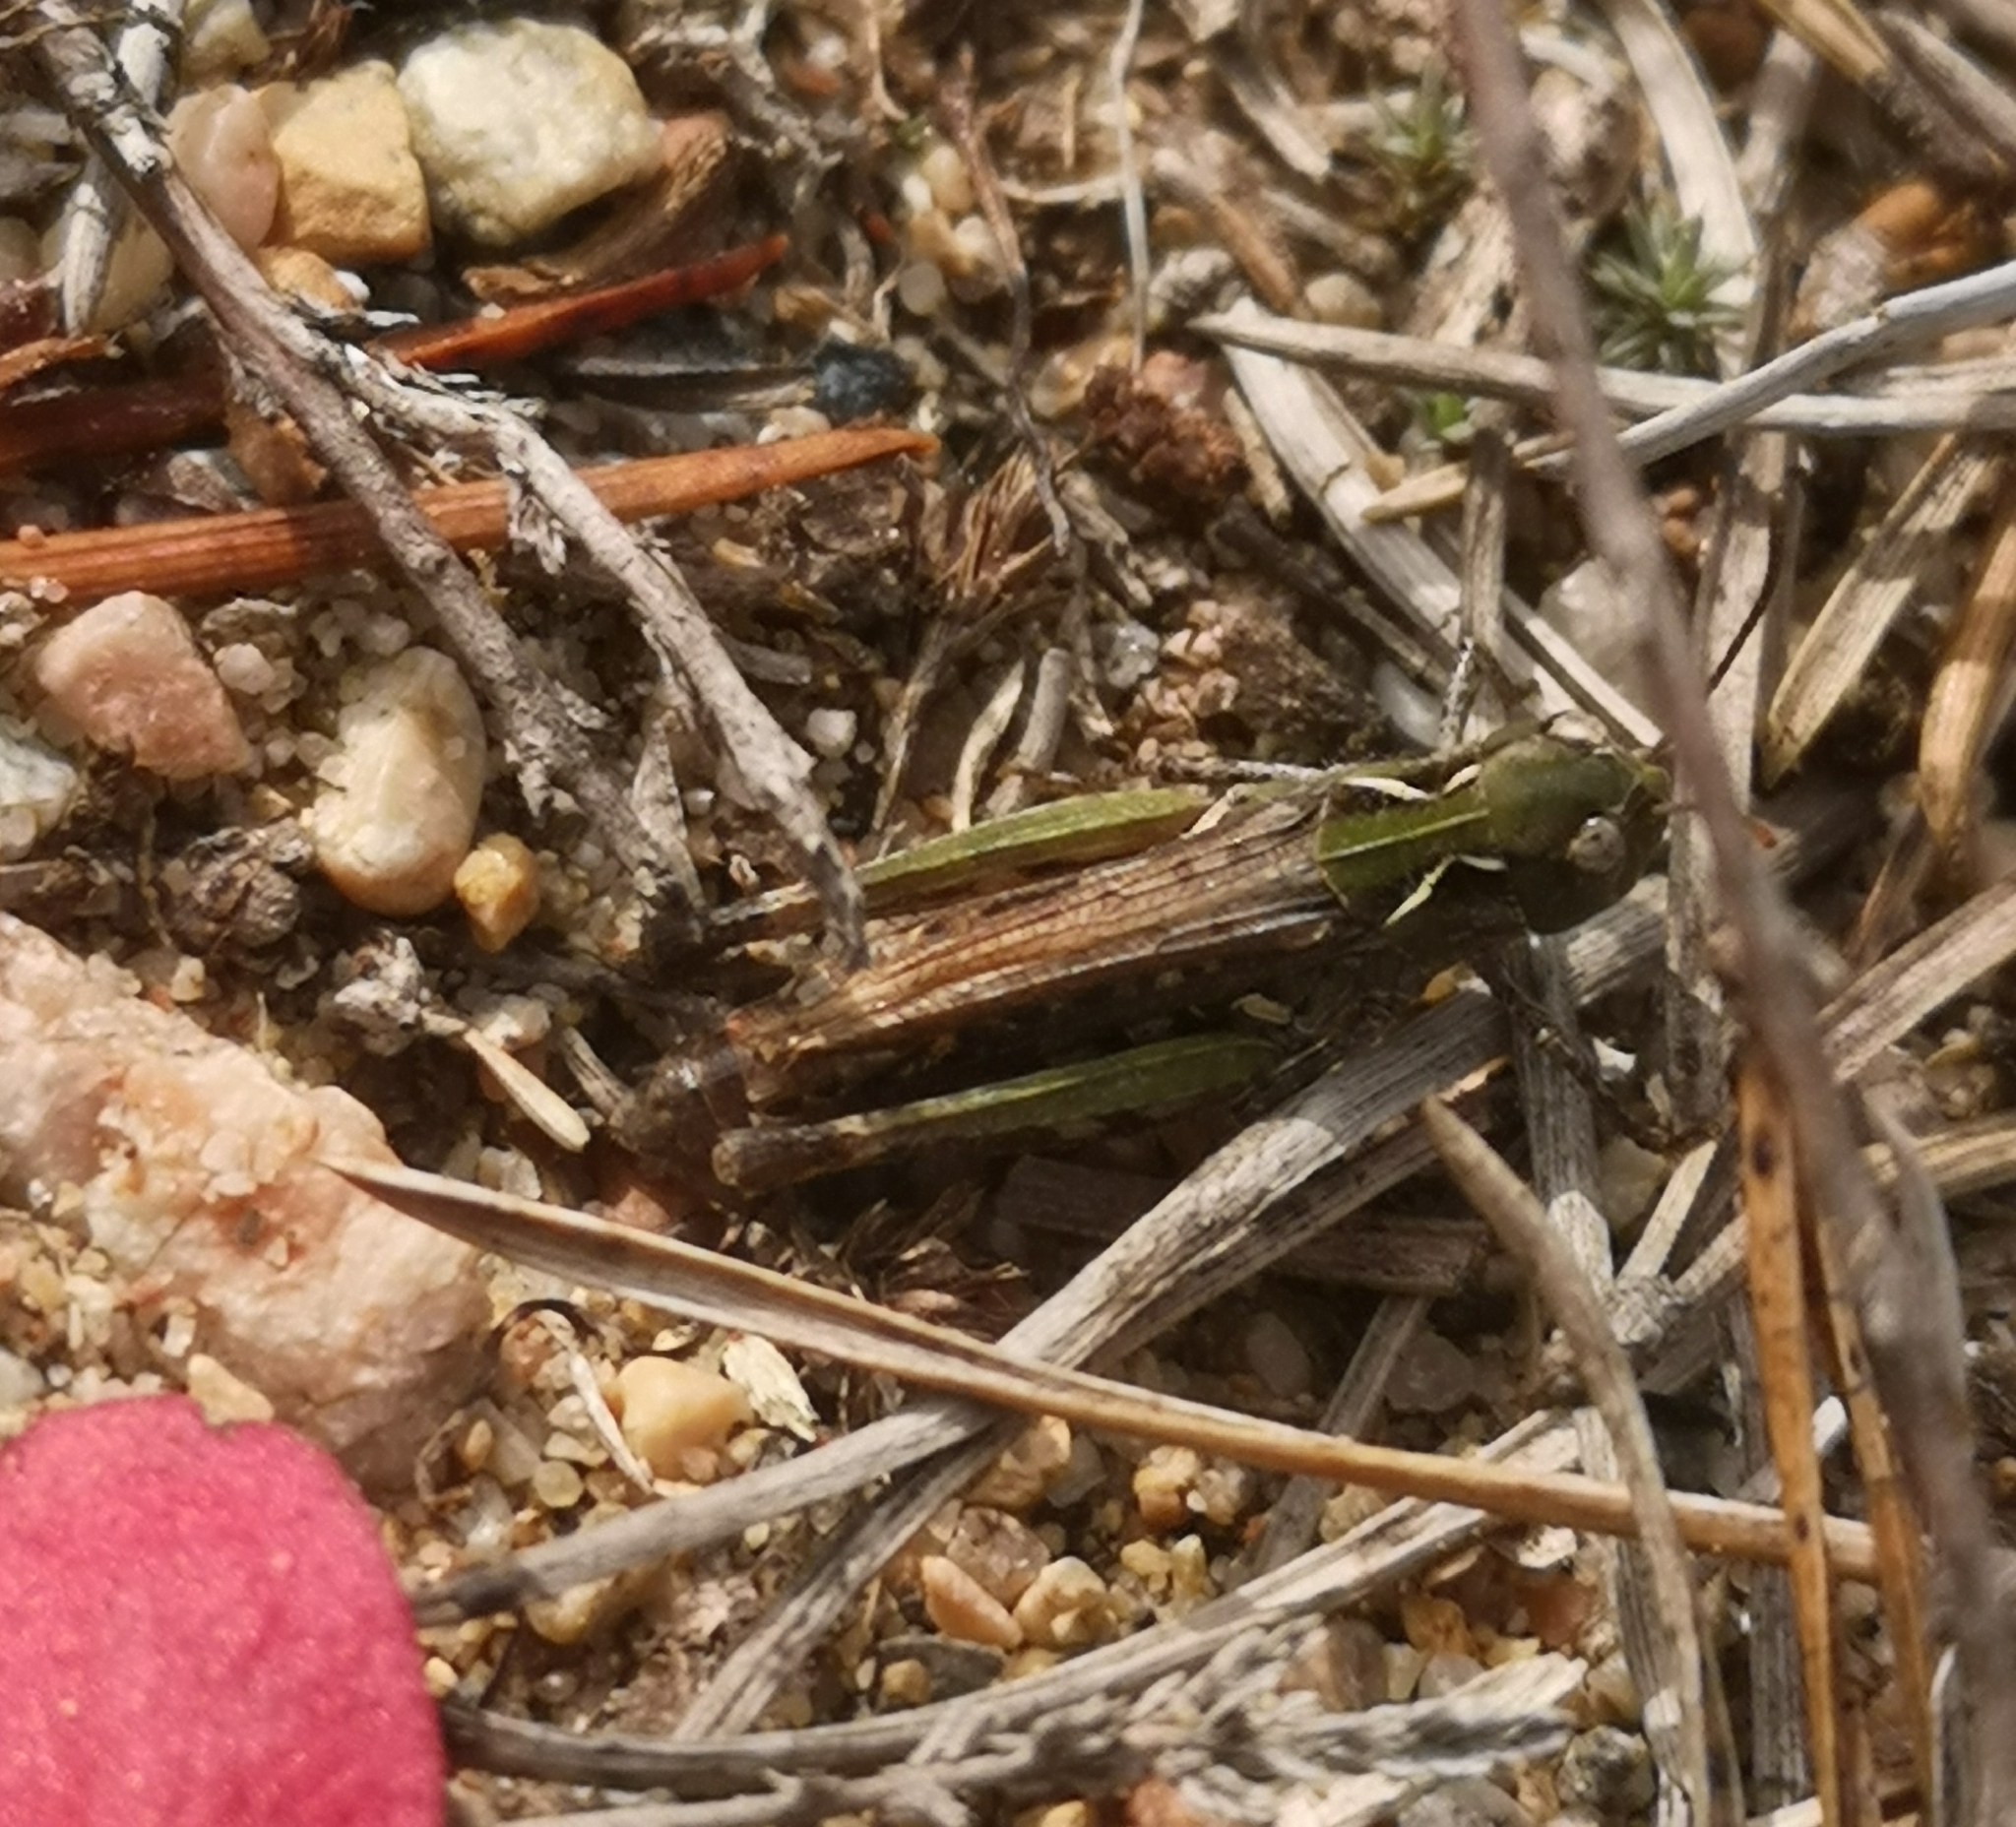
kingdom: Animalia
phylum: Arthropoda
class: Insecta
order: Orthoptera
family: Acrididae
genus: Myrmeleotettix
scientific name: Myrmeleotettix maculatus
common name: Mottled grasshopper
